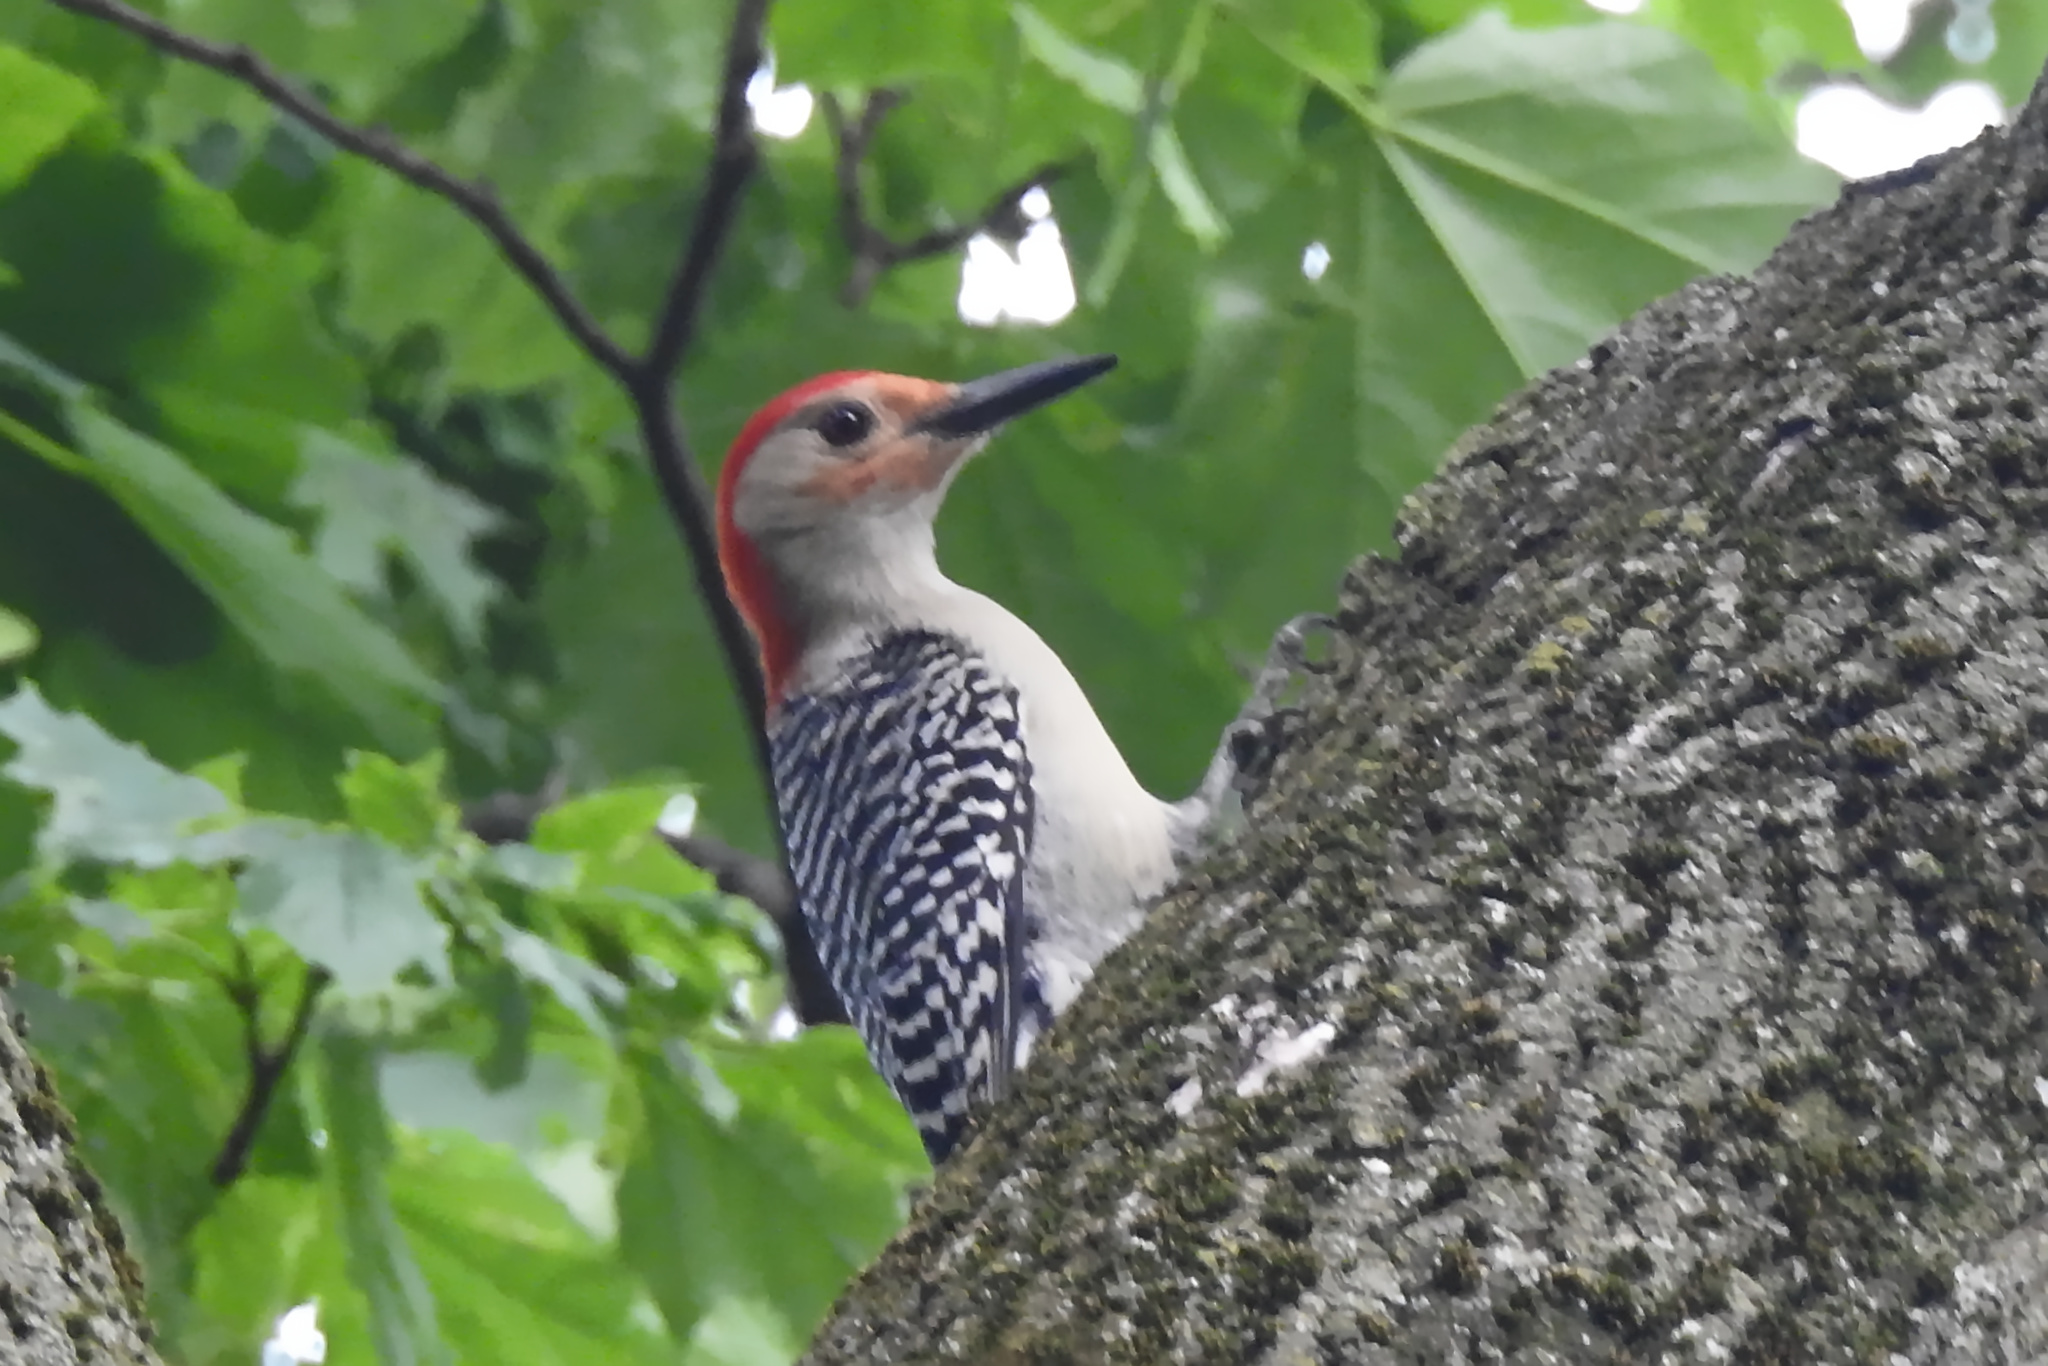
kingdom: Animalia
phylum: Chordata
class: Aves
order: Piciformes
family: Picidae
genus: Melanerpes
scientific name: Melanerpes carolinus
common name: Red-bellied woodpecker
